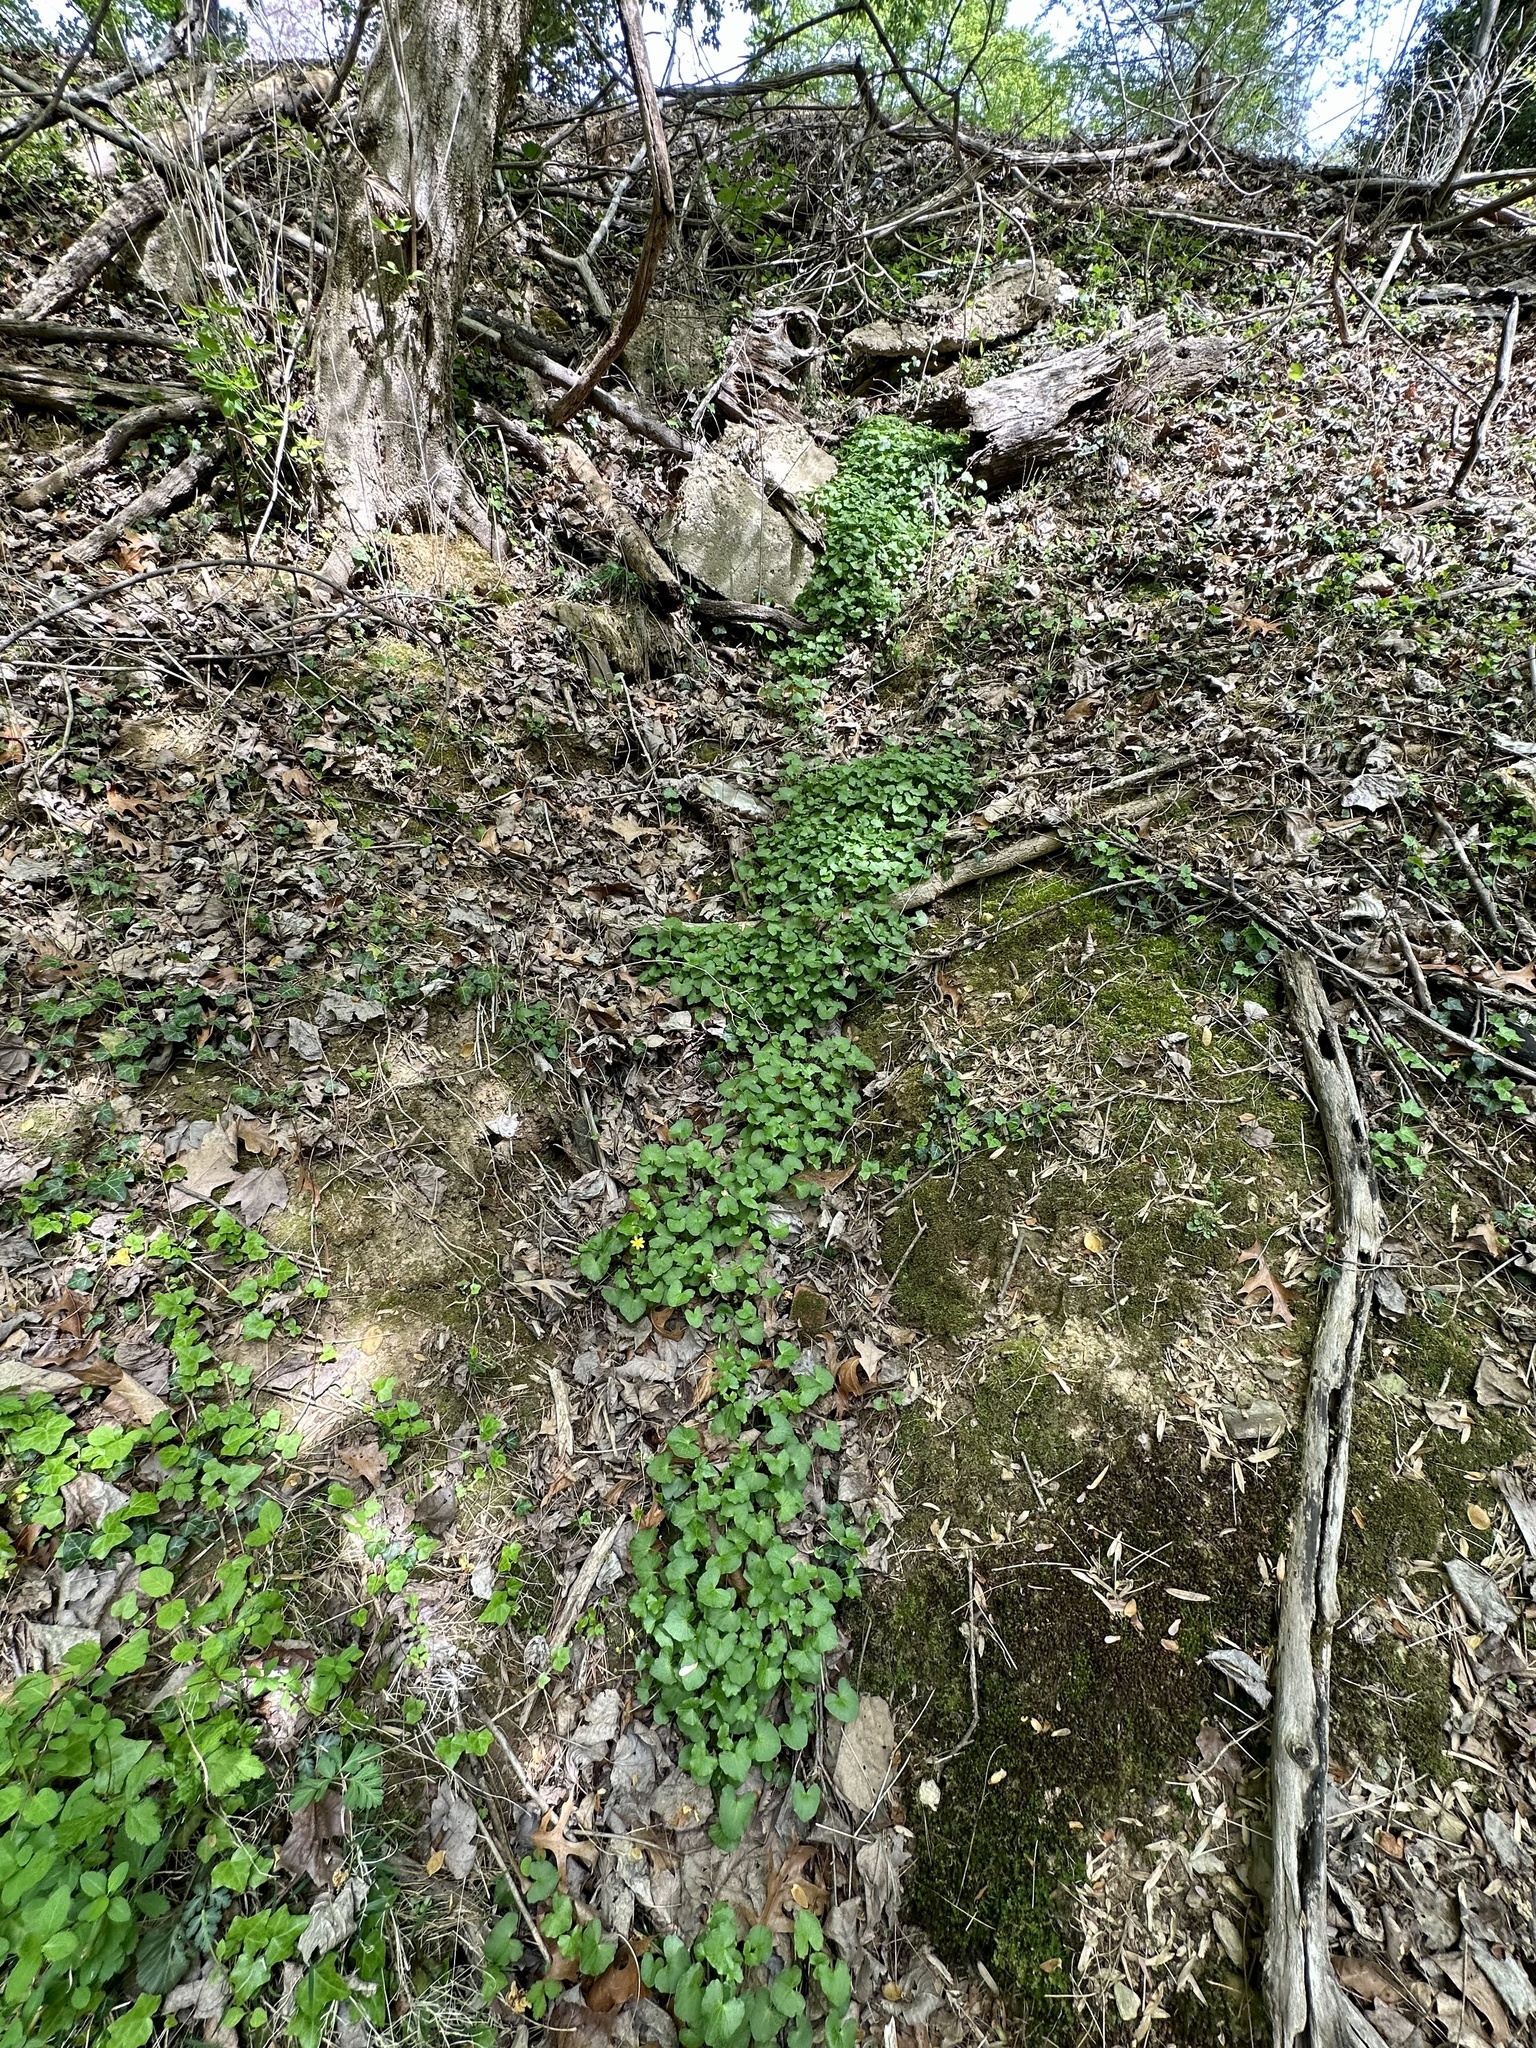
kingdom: Plantae
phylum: Tracheophyta
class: Magnoliopsida
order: Ranunculales
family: Ranunculaceae
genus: Ficaria
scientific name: Ficaria verna
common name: Lesser celandine
